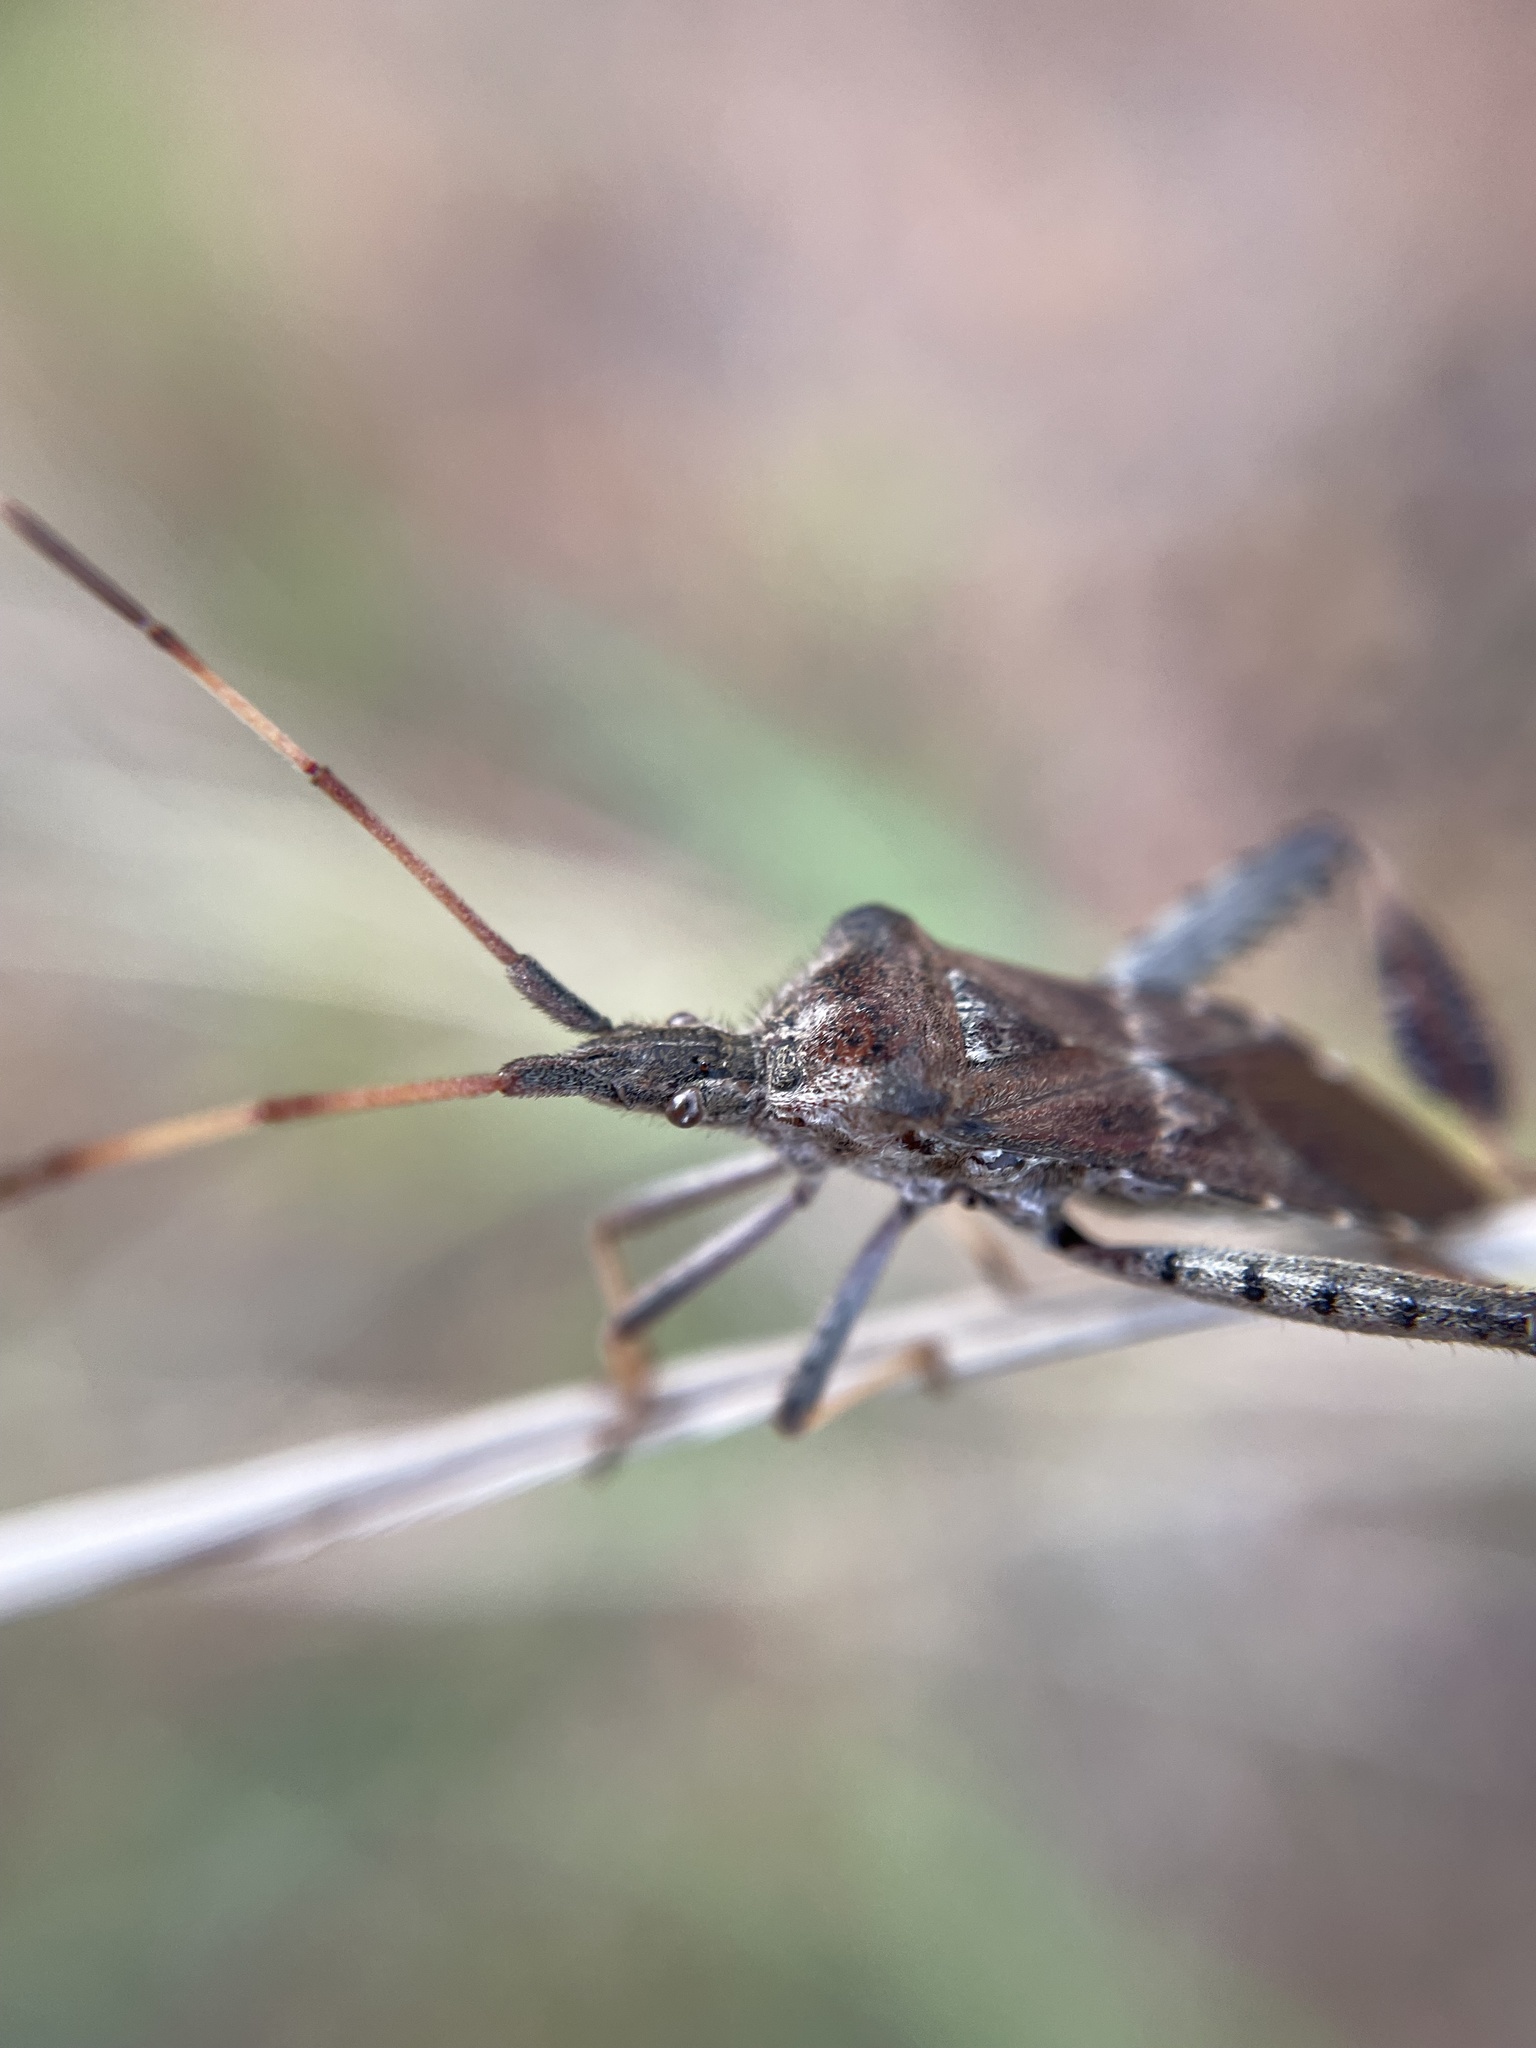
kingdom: Animalia
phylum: Arthropoda
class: Insecta
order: Hemiptera
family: Coreidae
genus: Leptoglossus
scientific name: Leptoglossus corculus
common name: Southern pine seed bug
